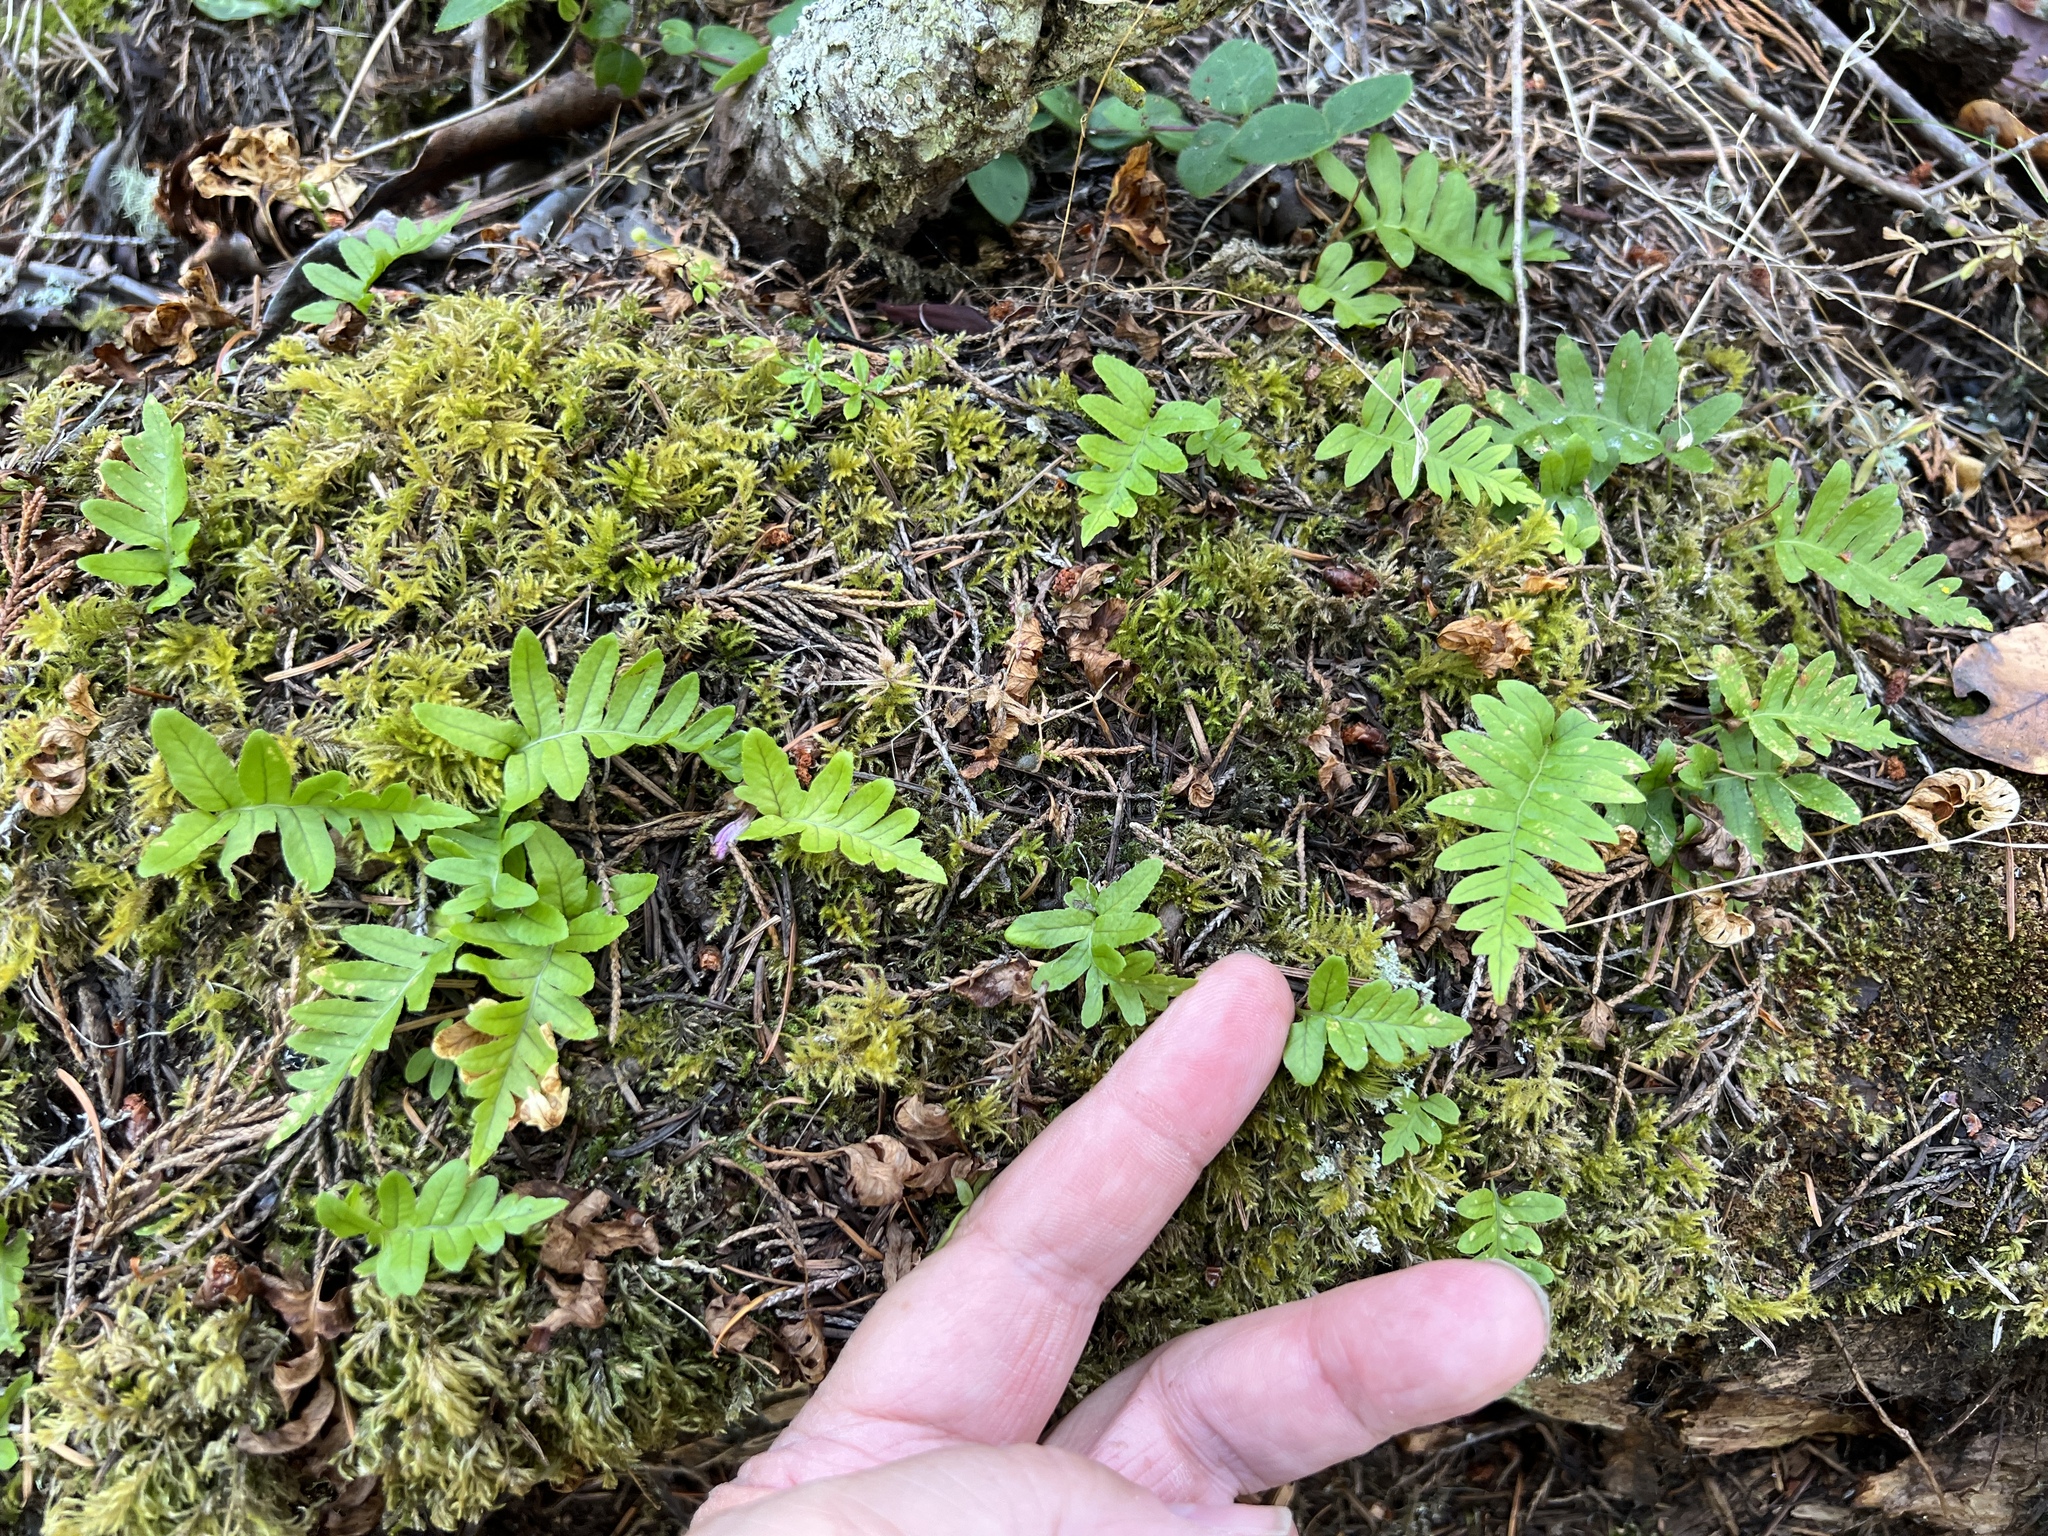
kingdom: Plantae
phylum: Tracheophyta
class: Polypodiopsida
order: Polypodiales
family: Polypodiaceae
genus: Polypodium
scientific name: Polypodium glycyrrhiza
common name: Licorice fern
